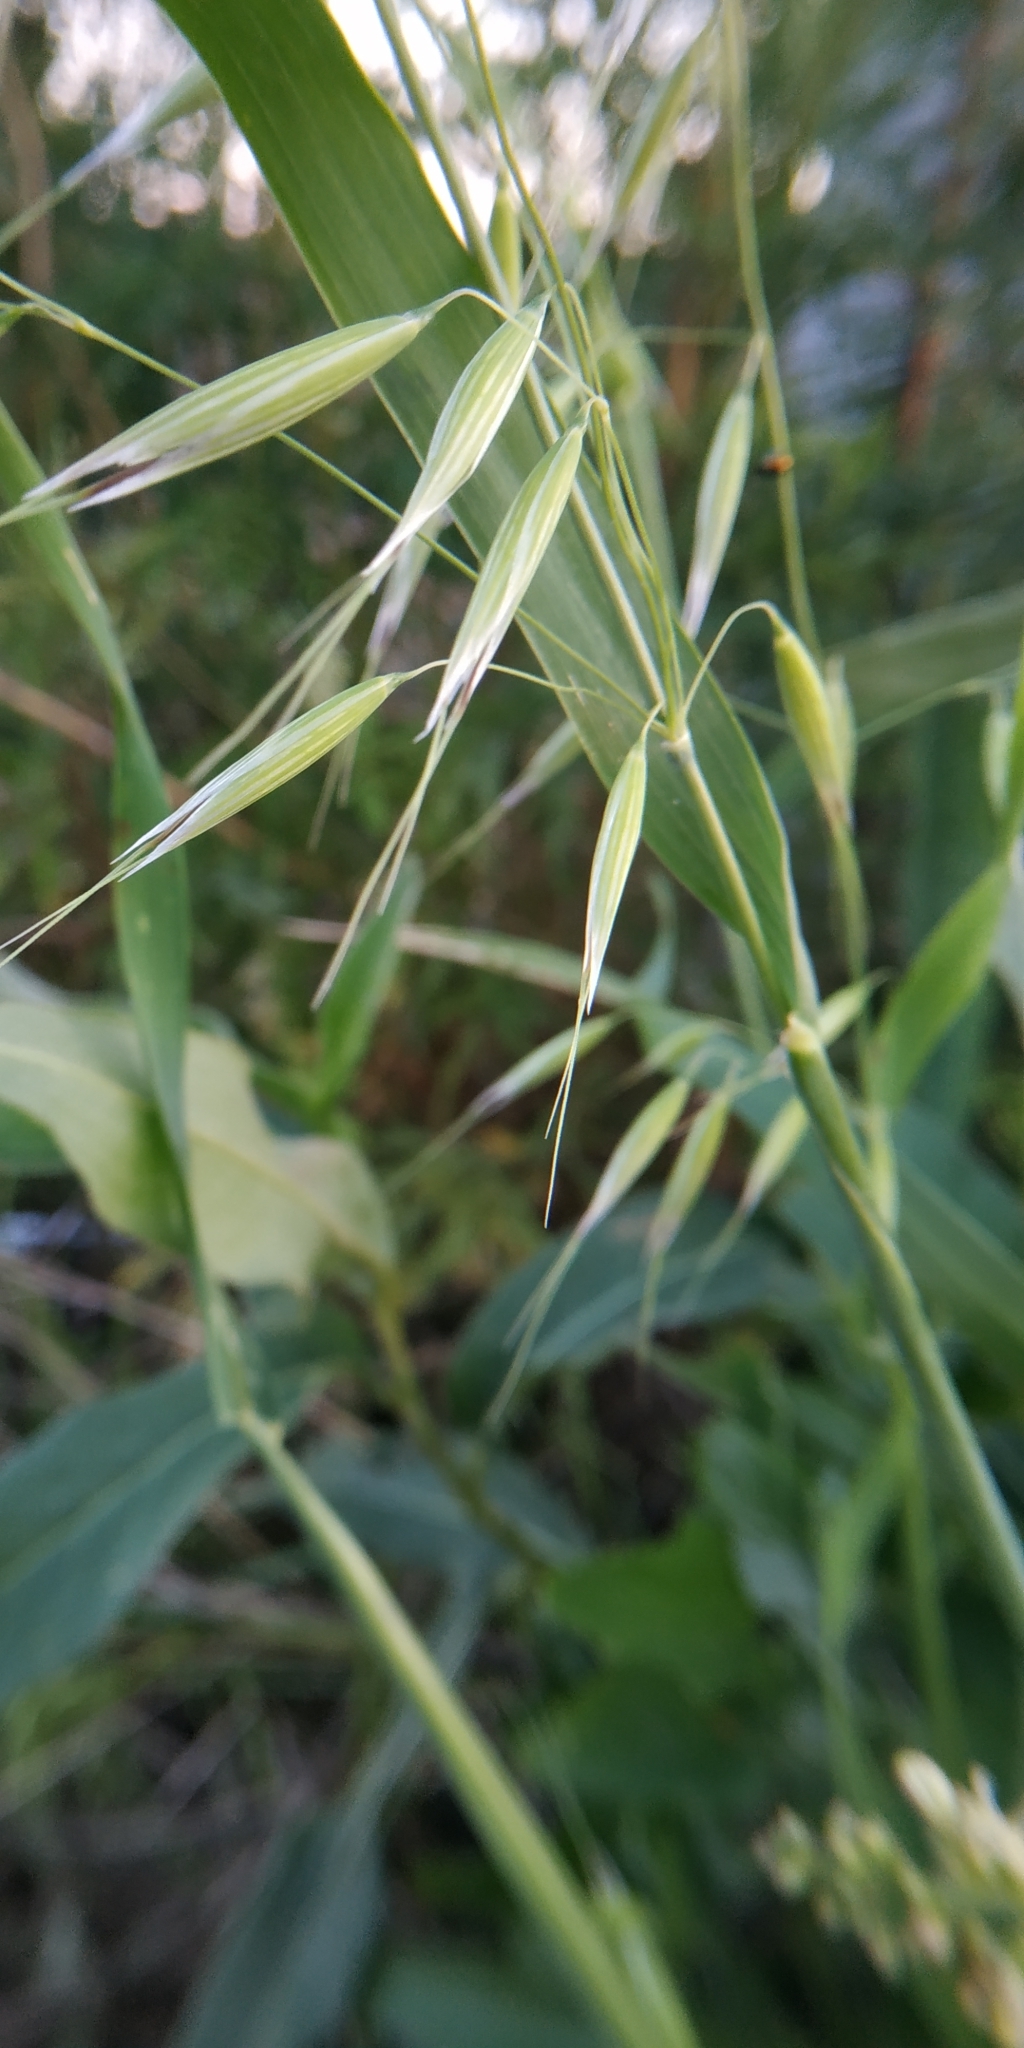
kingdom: Plantae
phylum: Tracheophyta
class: Liliopsida
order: Poales
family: Poaceae
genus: Avena
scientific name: Avena fatua
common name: Wild oat
